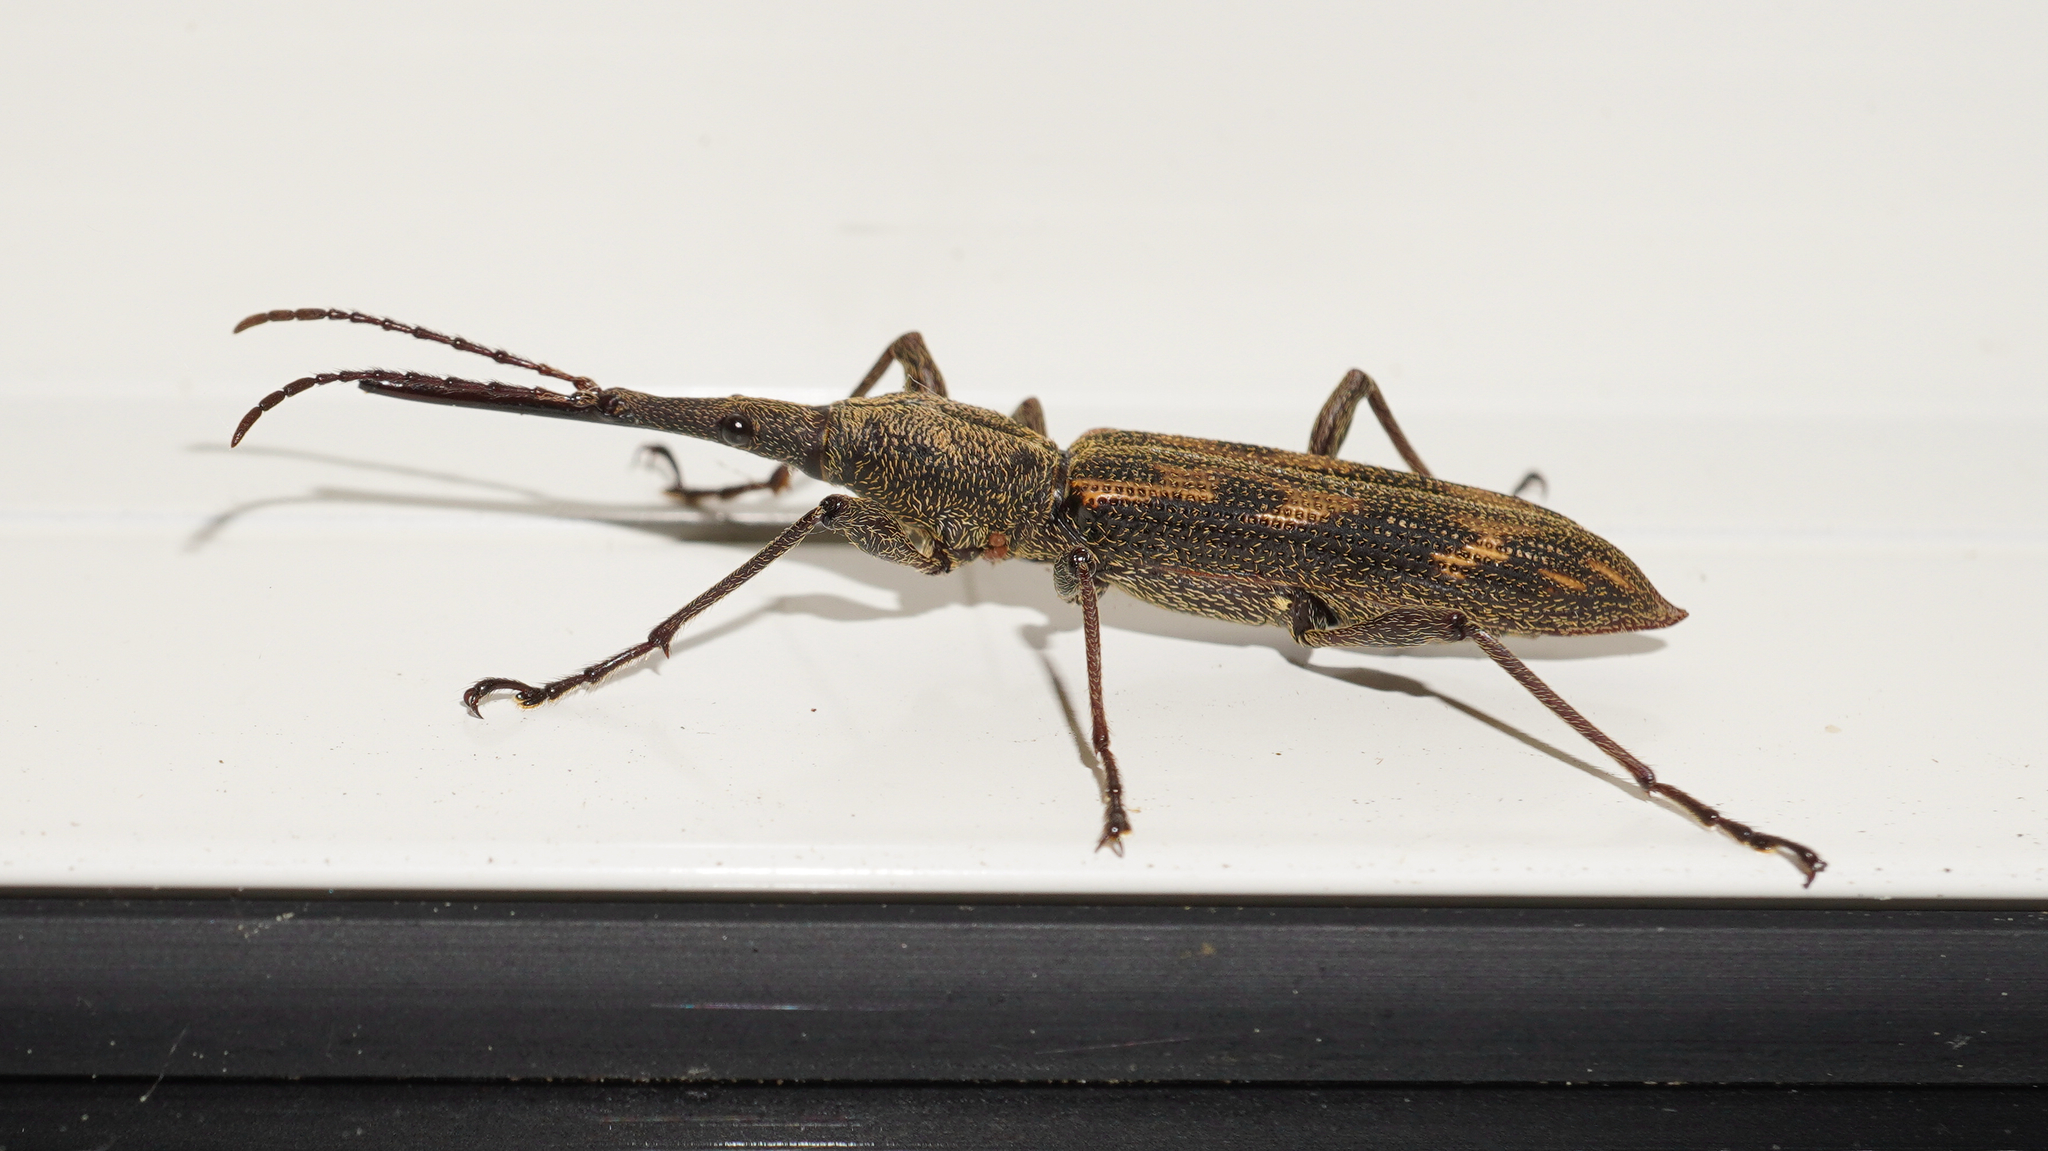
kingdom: Animalia
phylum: Arthropoda
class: Insecta
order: Coleoptera
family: Brentidae
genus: Lasiorhynchus
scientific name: Lasiorhynchus barbicornis
